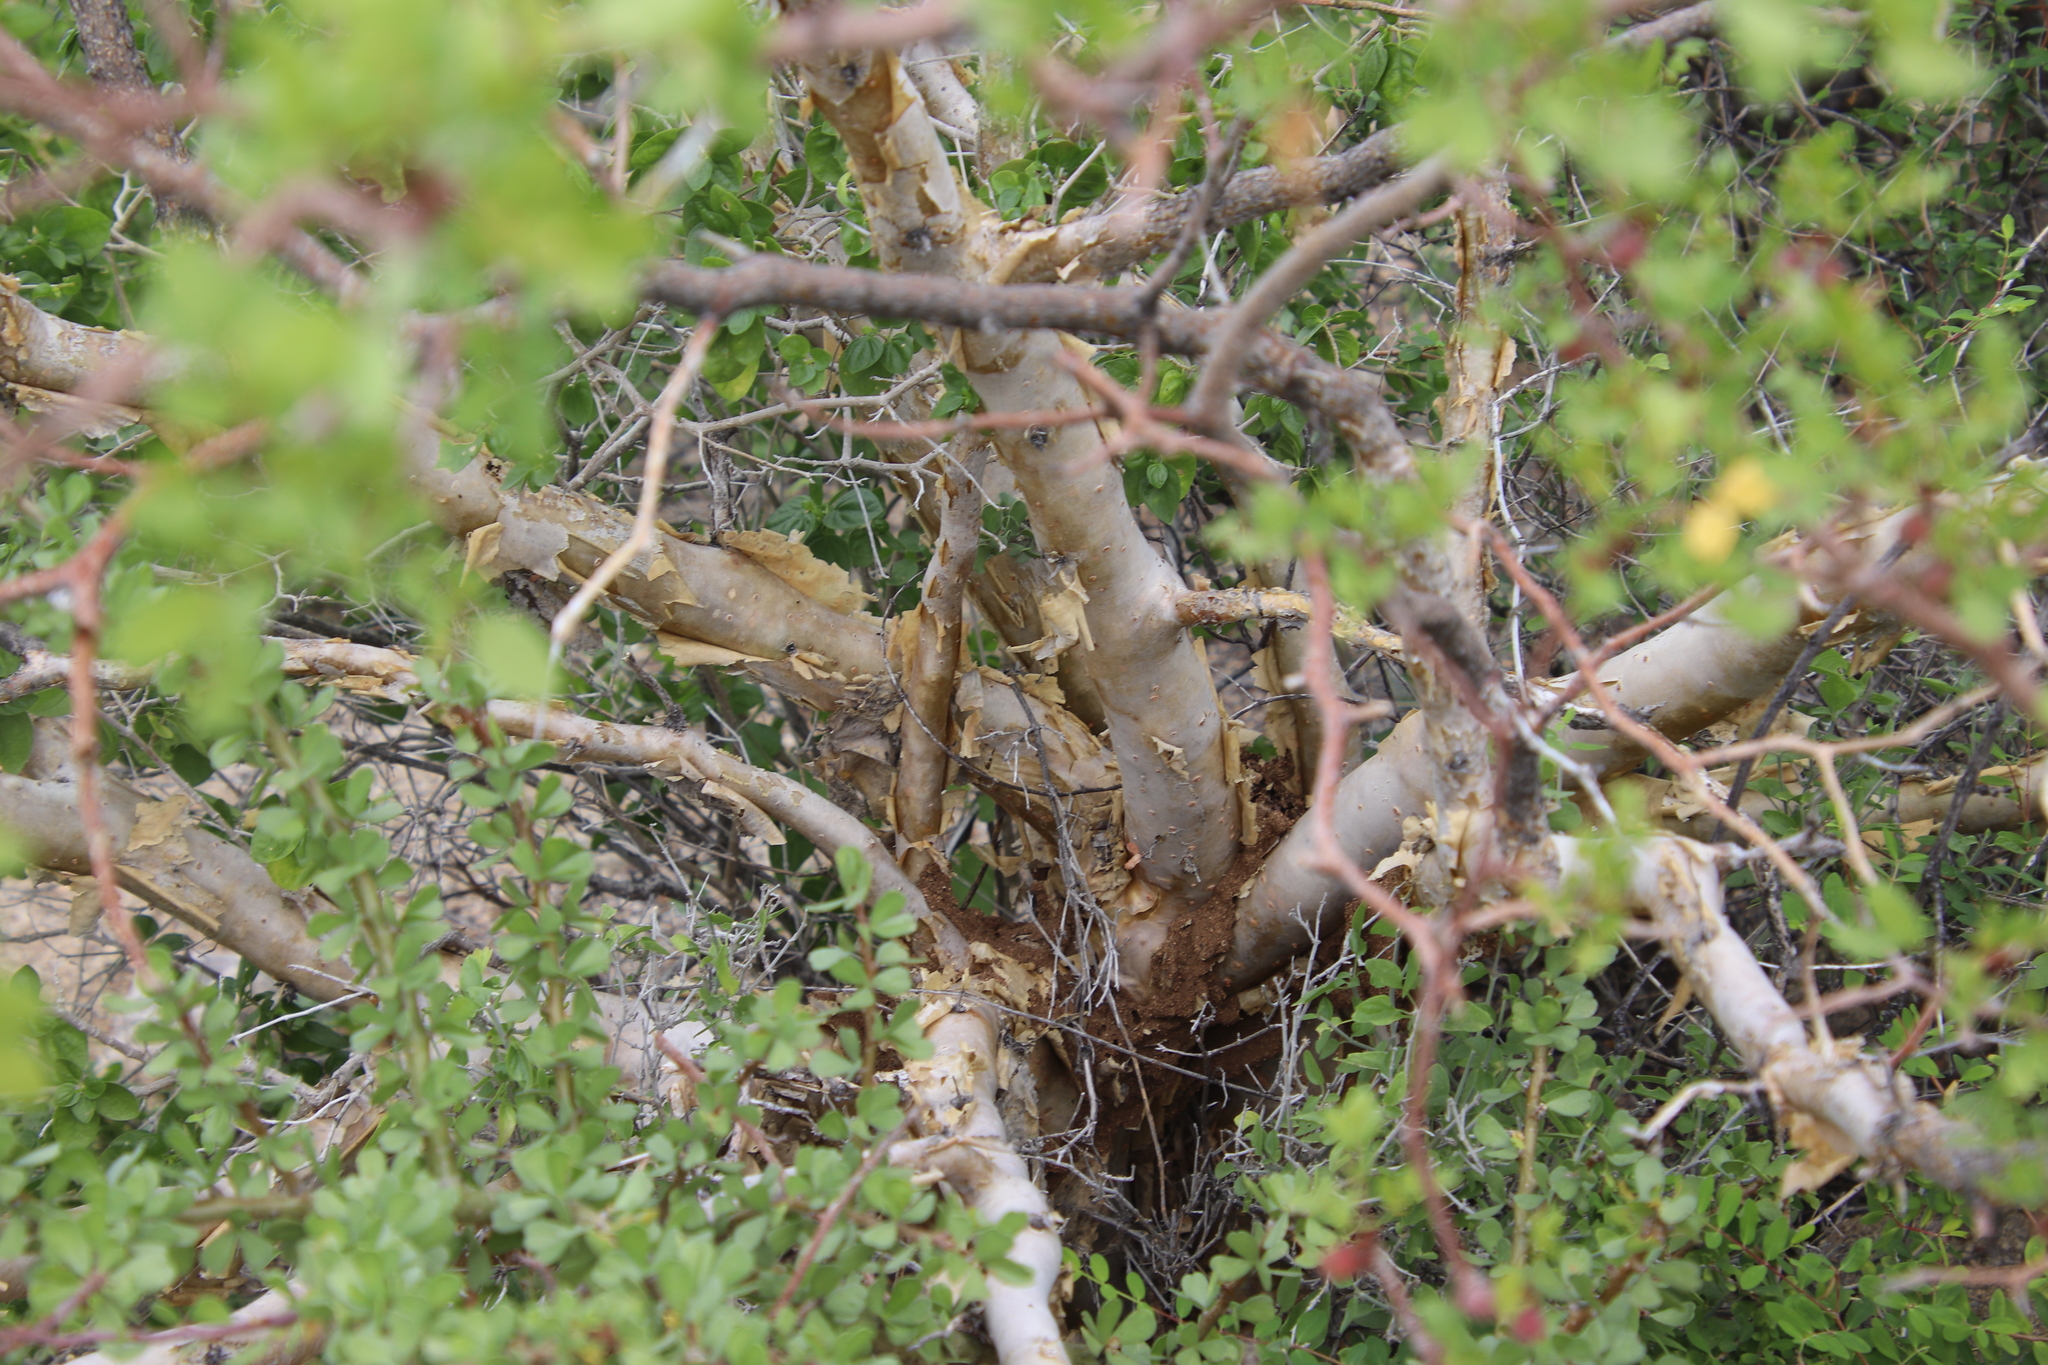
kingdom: Plantae
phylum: Tracheophyta
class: Magnoliopsida
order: Sapindales
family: Burseraceae
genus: Bursera
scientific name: Bursera fagaroides
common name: Elephant tree
